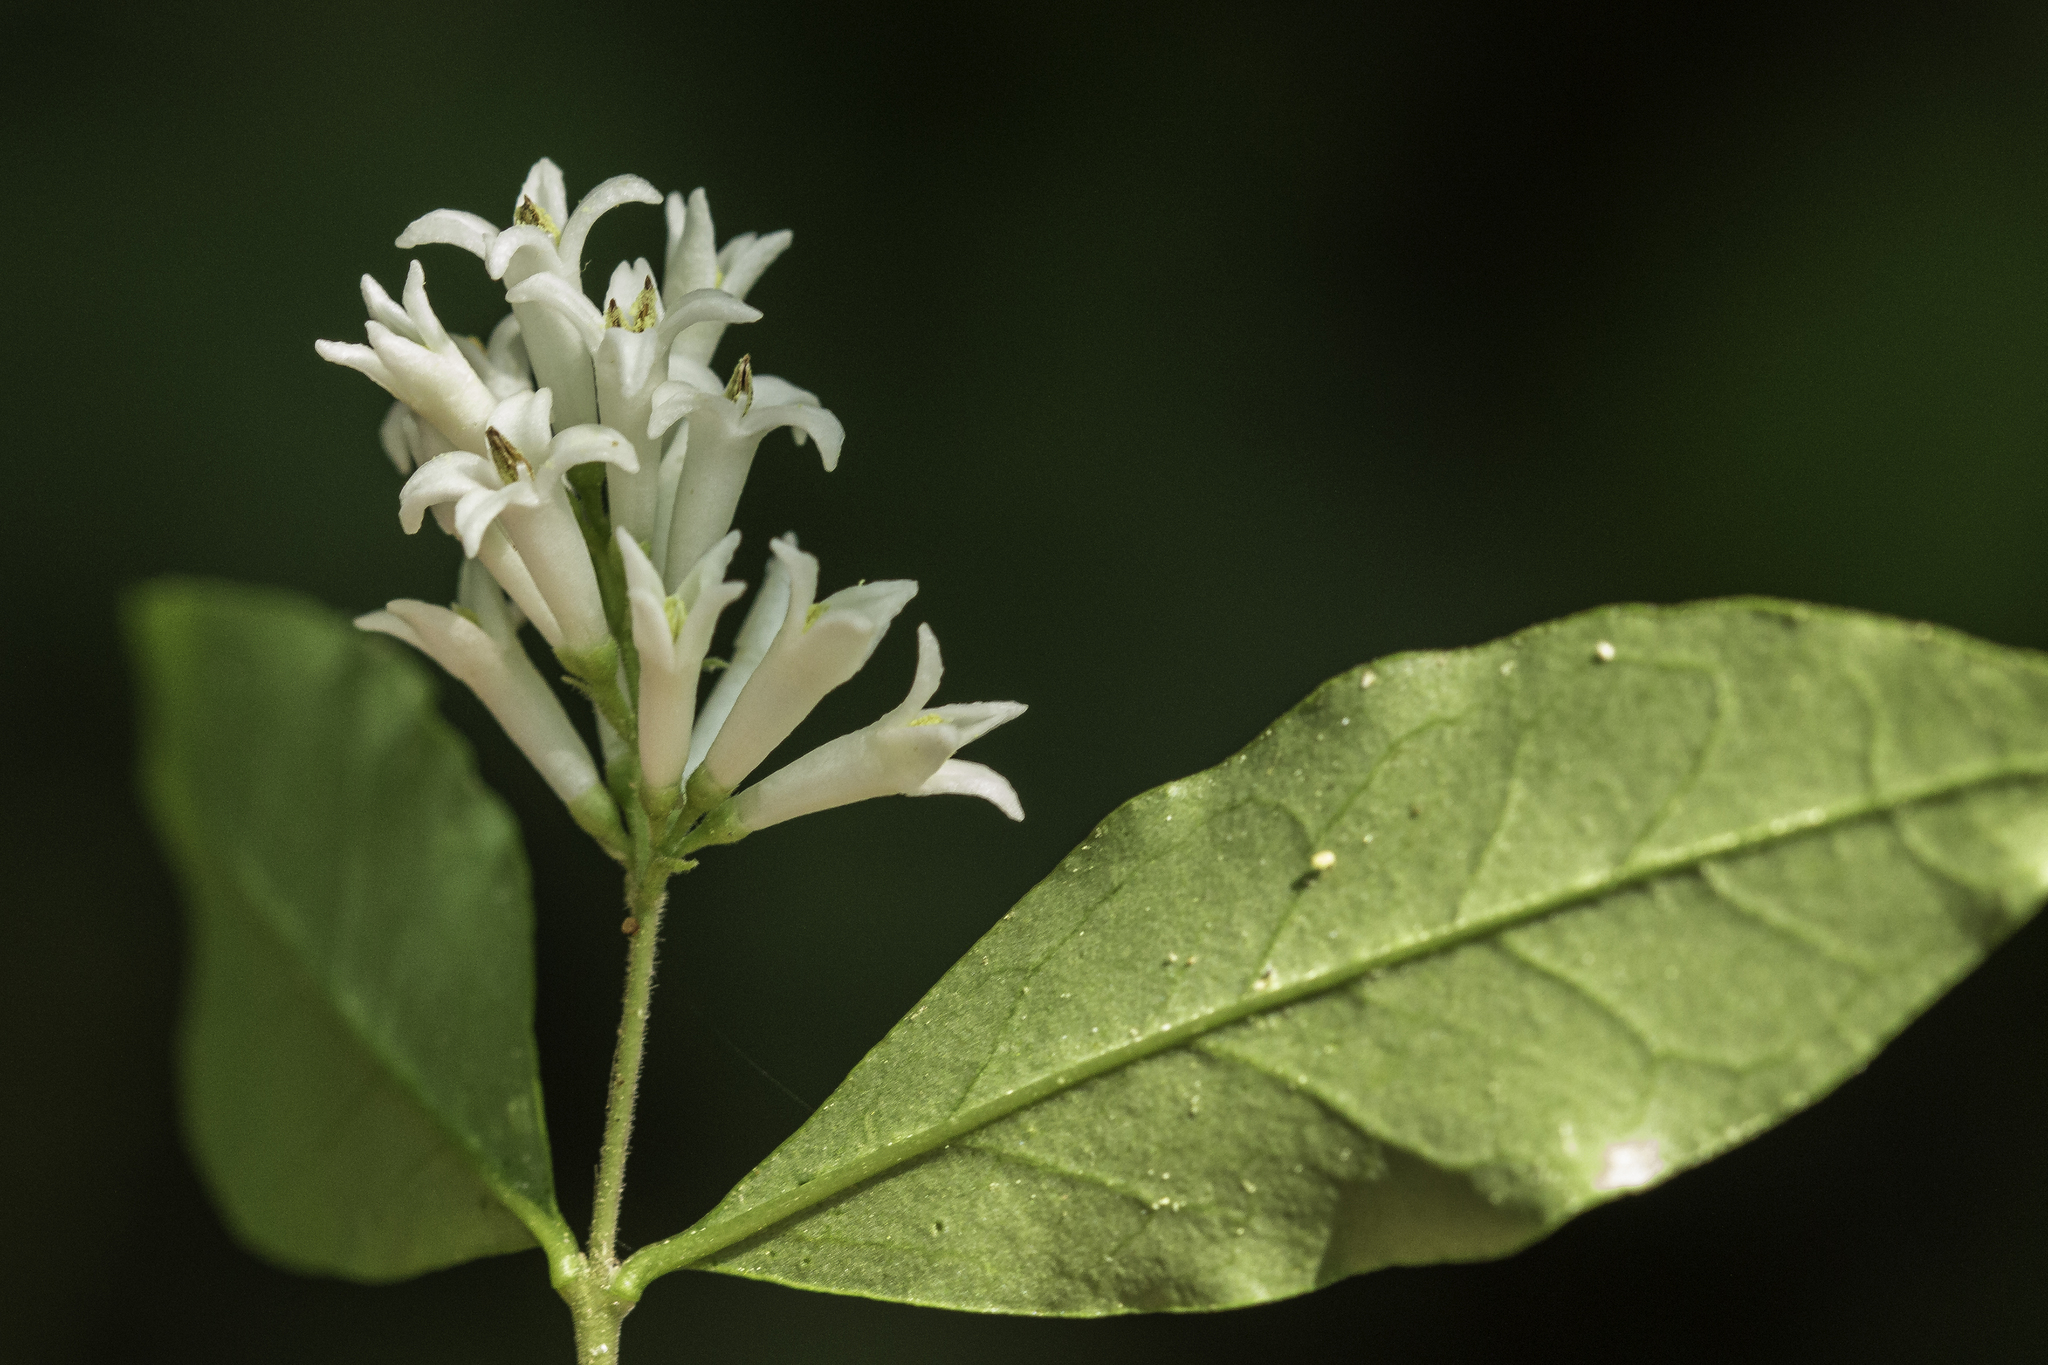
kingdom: Plantae
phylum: Tracheophyta
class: Magnoliopsida
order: Lamiales
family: Oleaceae
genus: Ligustrum
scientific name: Ligustrum obtusifolium
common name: Border privet
